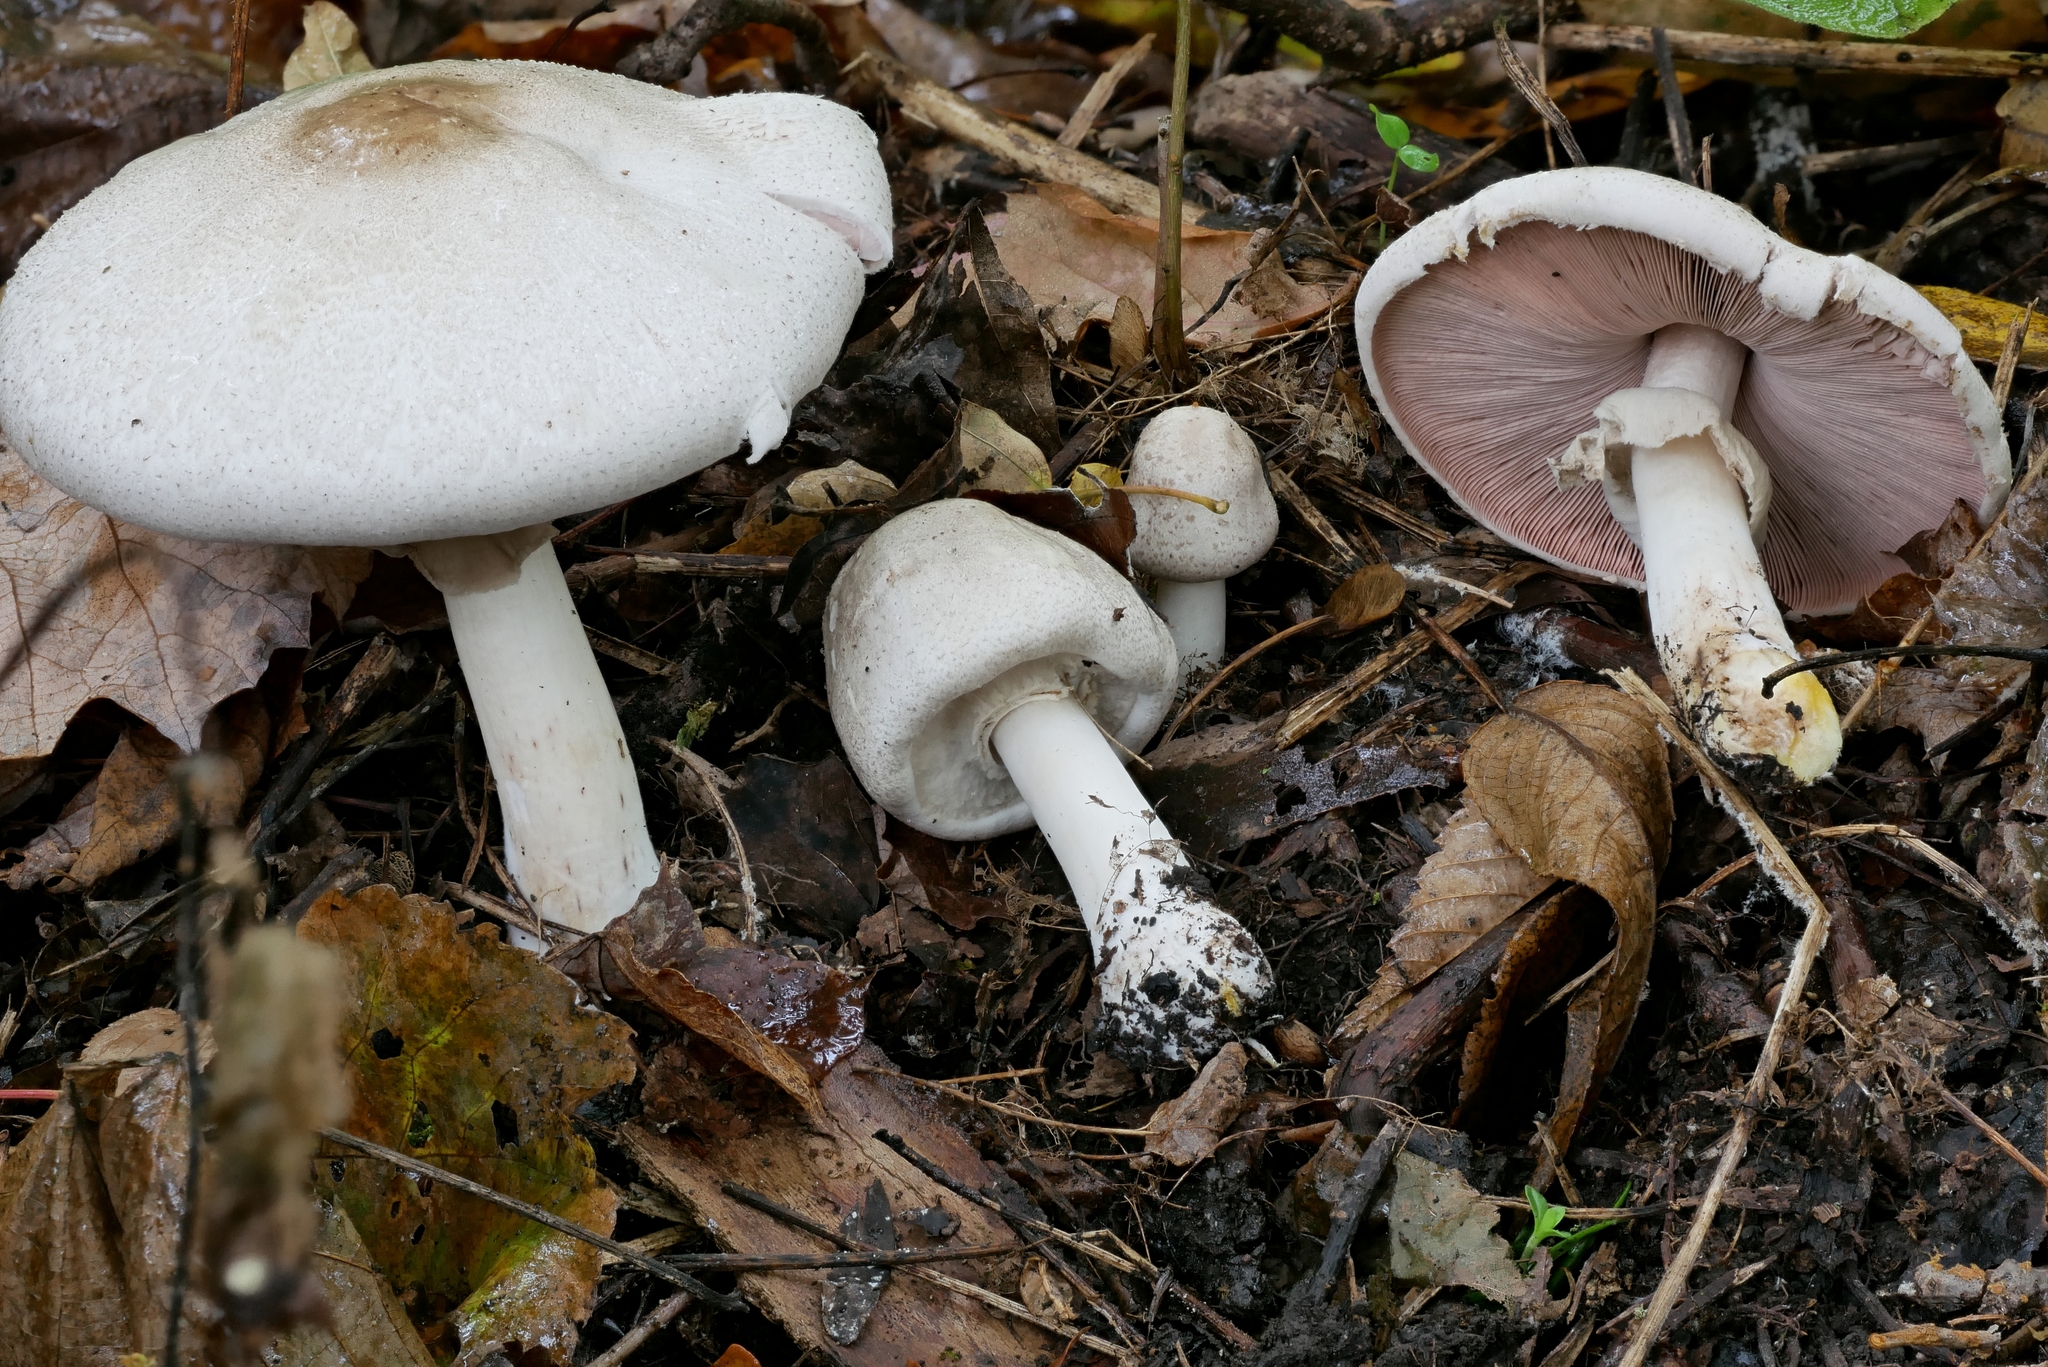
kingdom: Fungi
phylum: Basidiomycota
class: Agaricomycetes
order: Agaricales
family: Agaricaceae
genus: Agaricus
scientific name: Agaricus approximans
